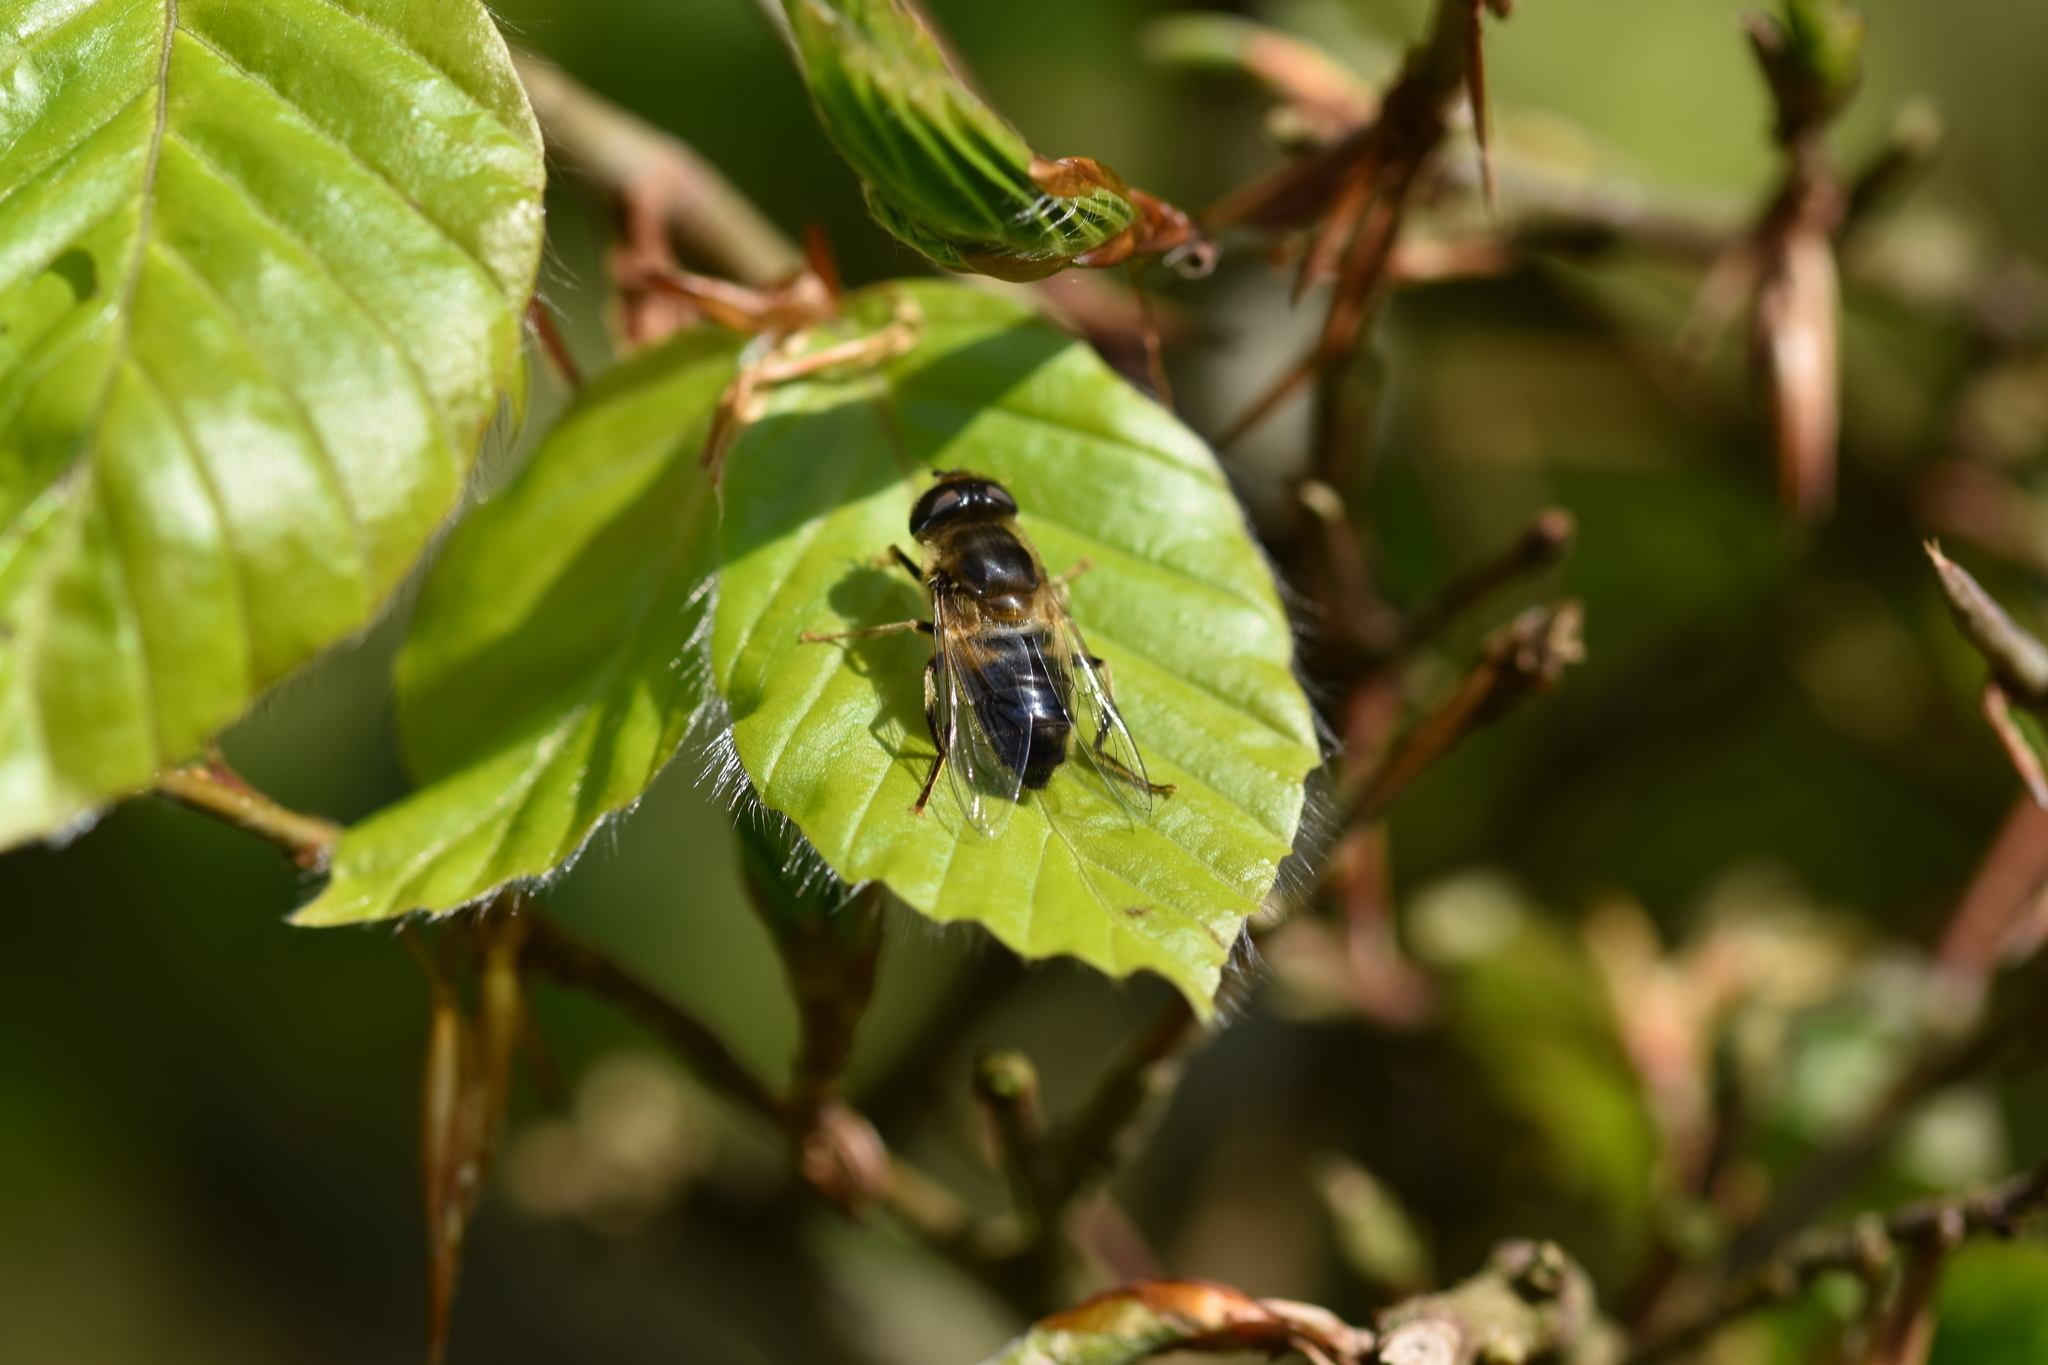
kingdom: Animalia
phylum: Arthropoda
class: Insecta
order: Diptera
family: Syrphidae
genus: Eristalis
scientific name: Eristalis pertinax
